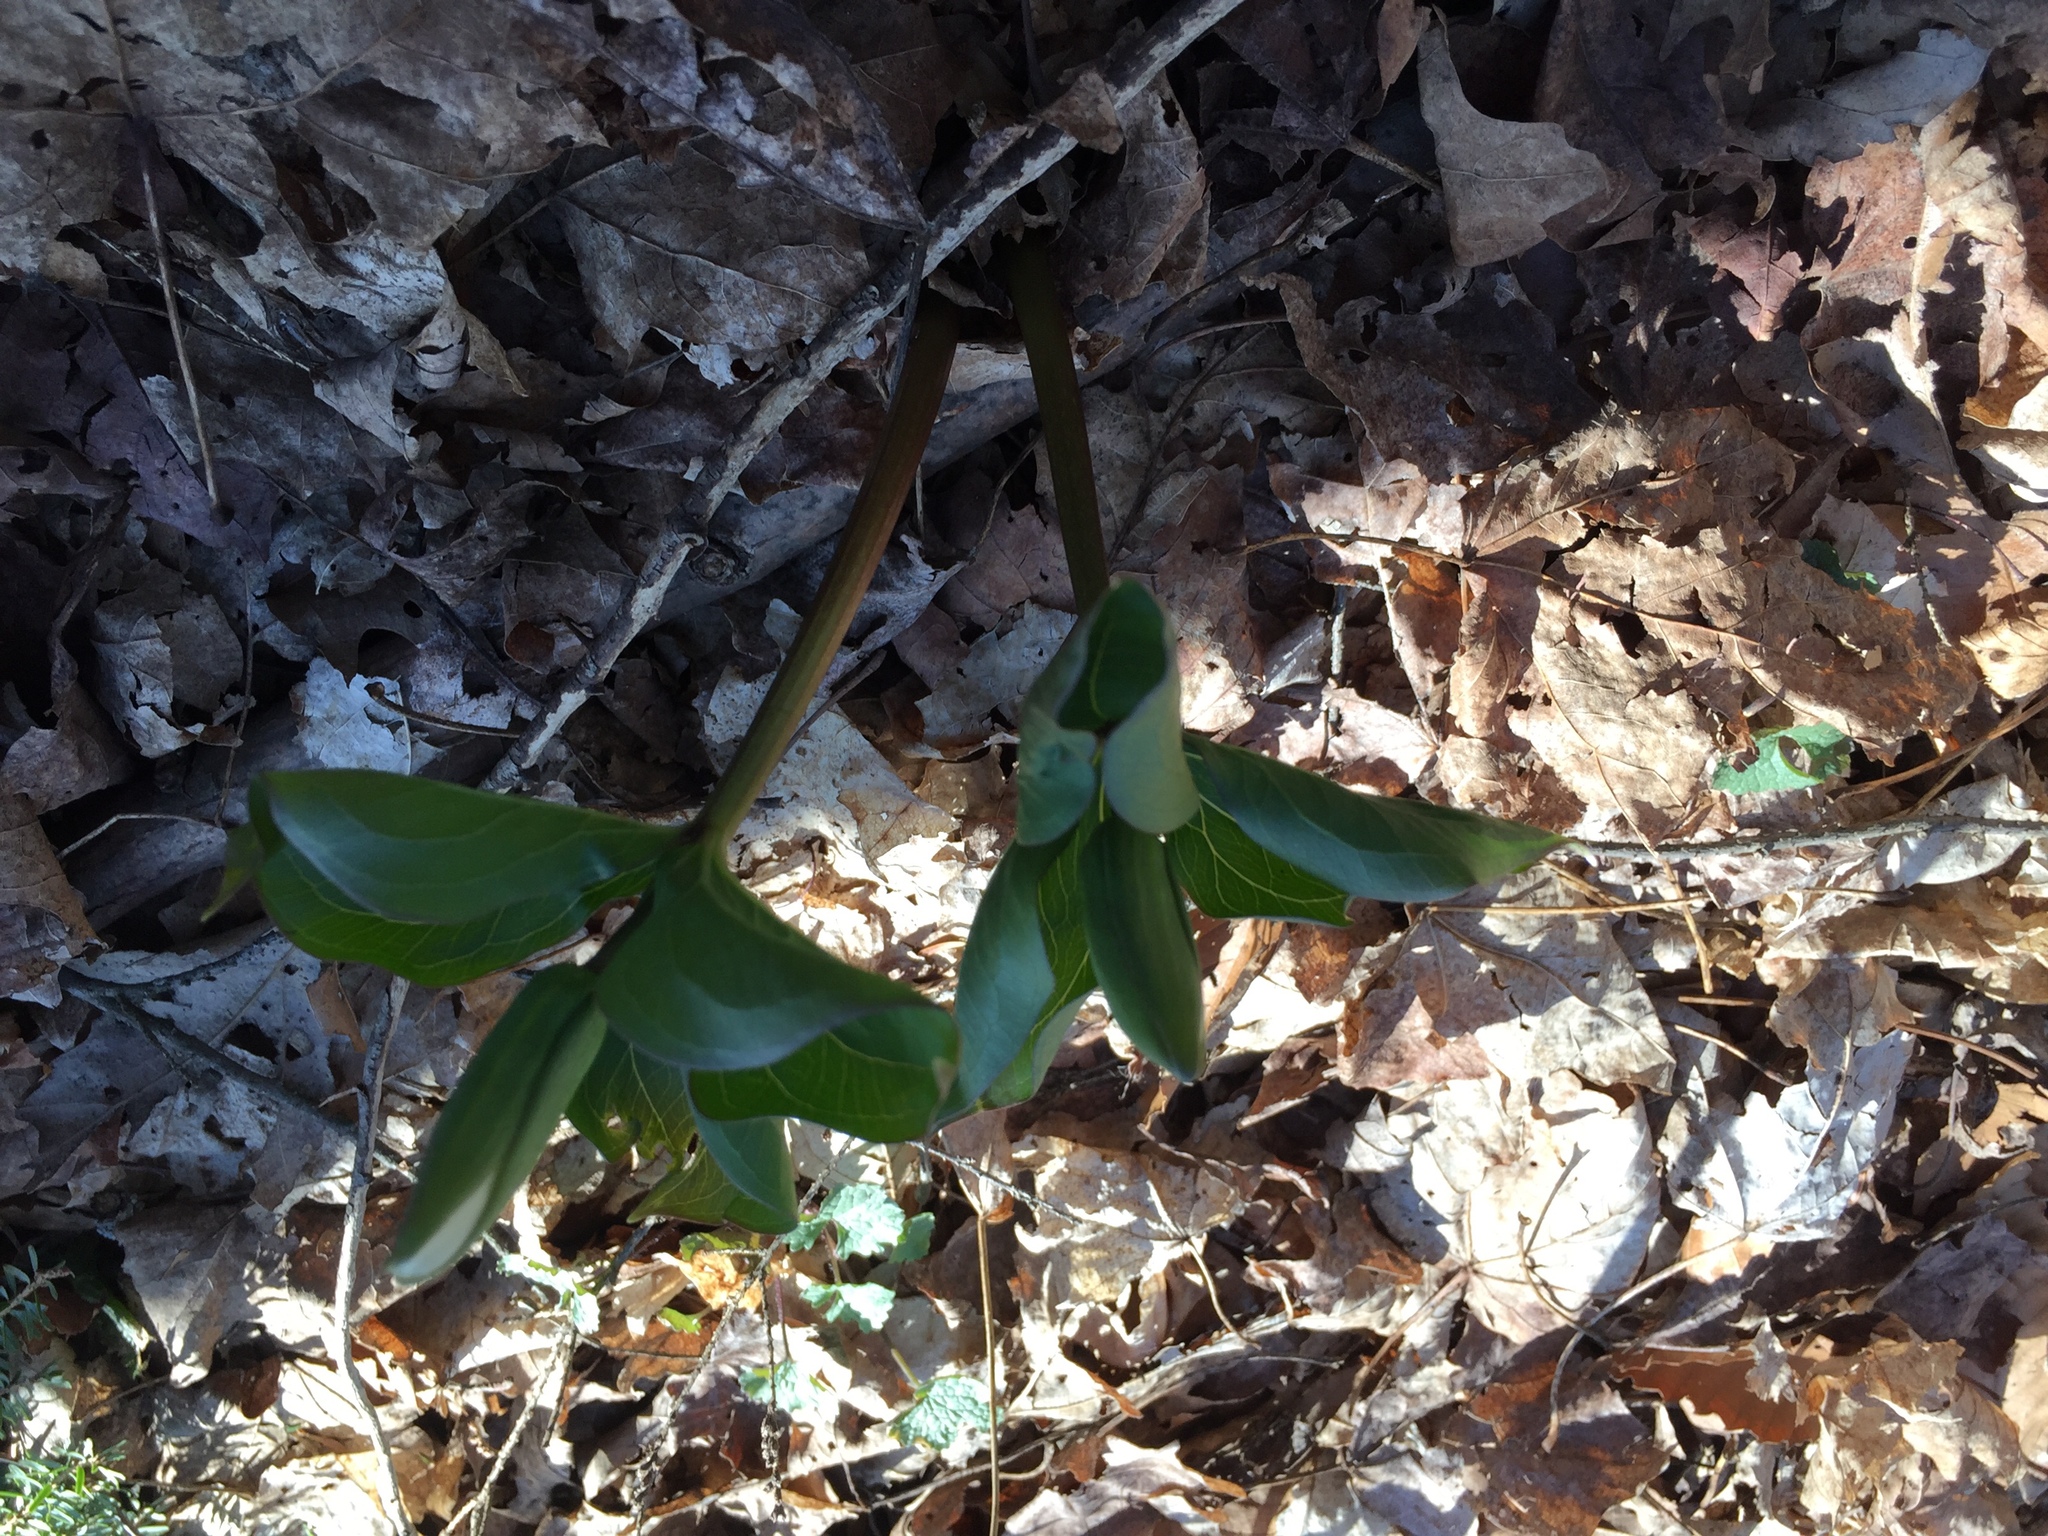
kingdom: Plantae
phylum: Tracheophyta
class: Liliopsida
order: Liliales
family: Melanthiaceae
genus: Trillium
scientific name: Trillium grandiflorum
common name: Great white trillium
